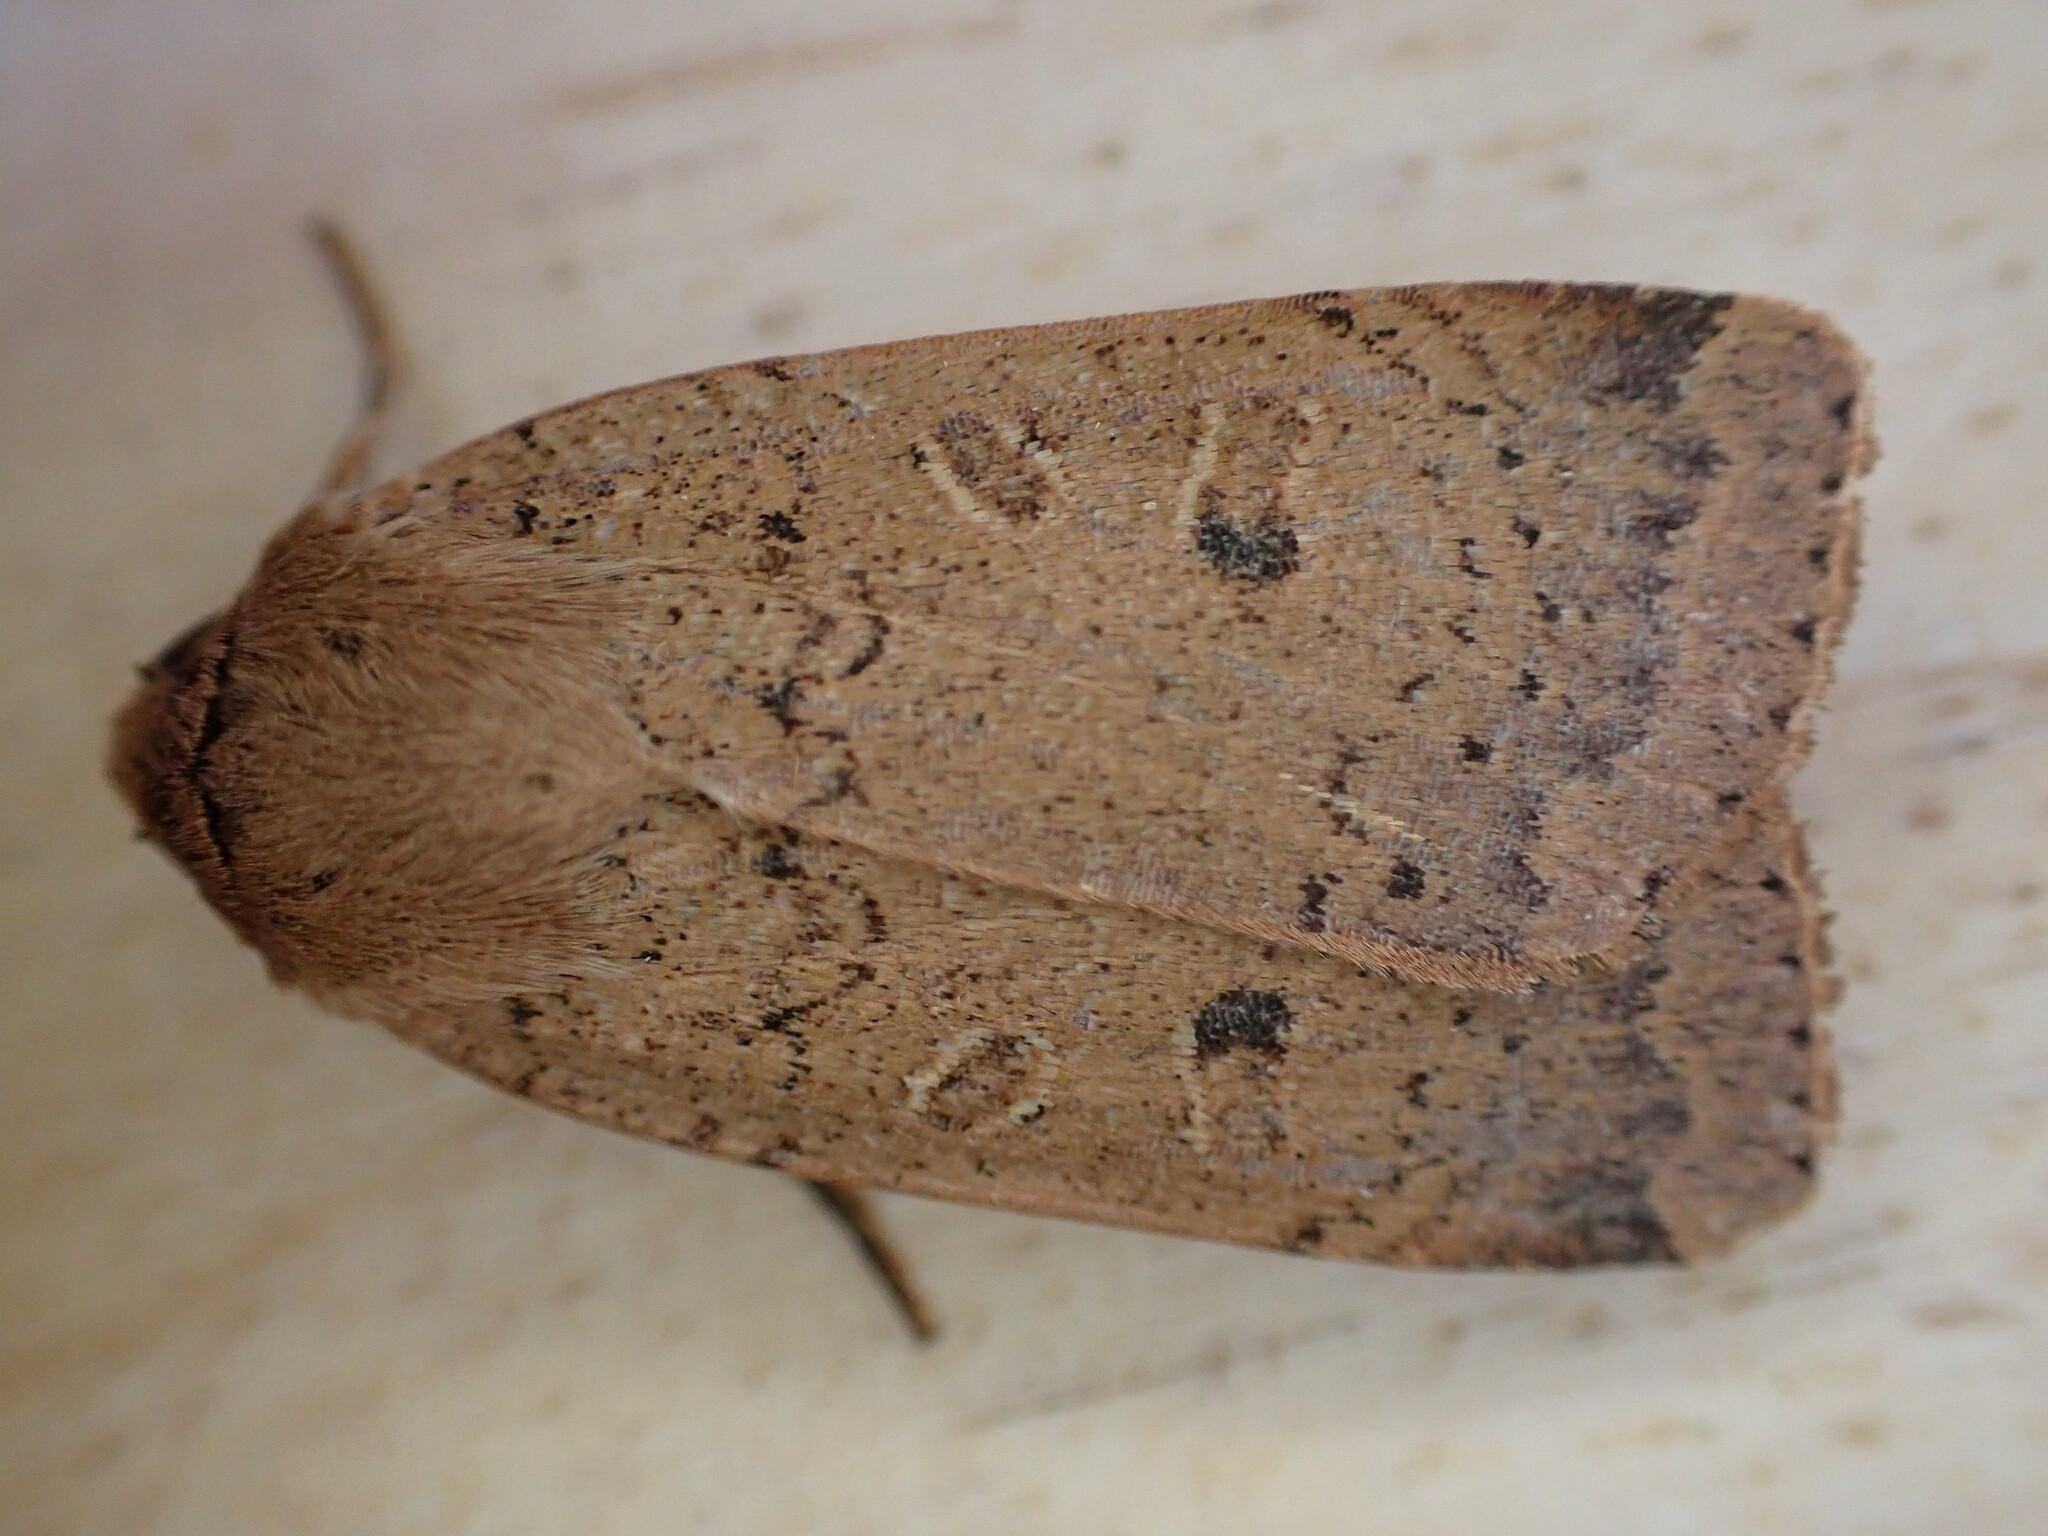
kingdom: Animalia
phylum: Arthropoda
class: Insecta
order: Lepidoptera
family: Noctuidae
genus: Noctua
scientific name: Noctua comes
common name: Lesser yellow underwing
